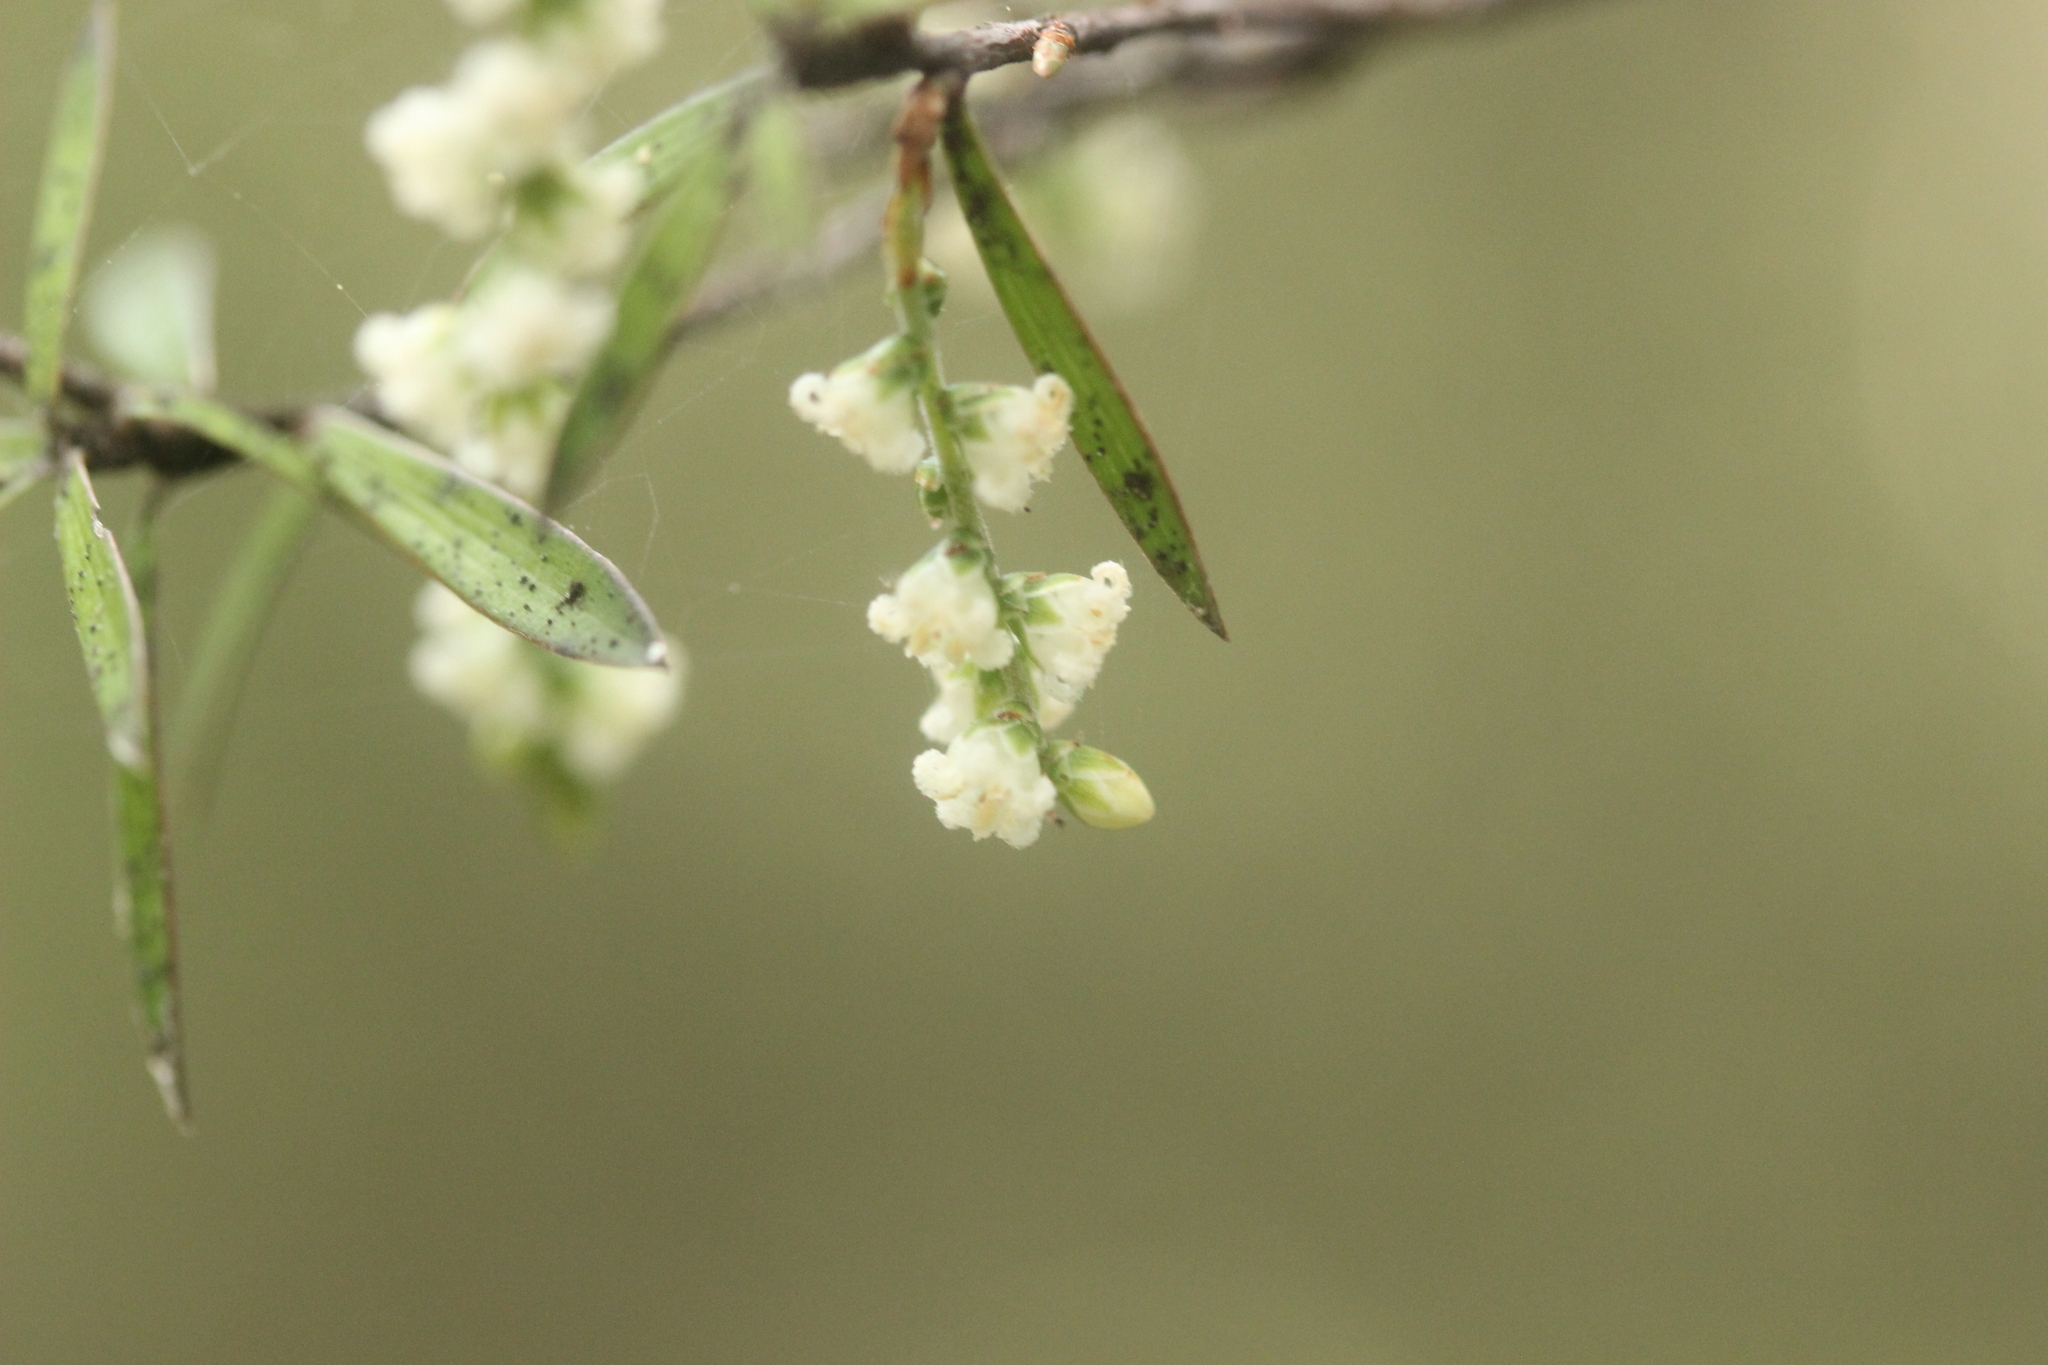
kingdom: Plantae
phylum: Tracheophyta
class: Magnoliopsida
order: Ericales
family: Ericaceae
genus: Leucopogon
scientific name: Leucopogon fasciculatus
